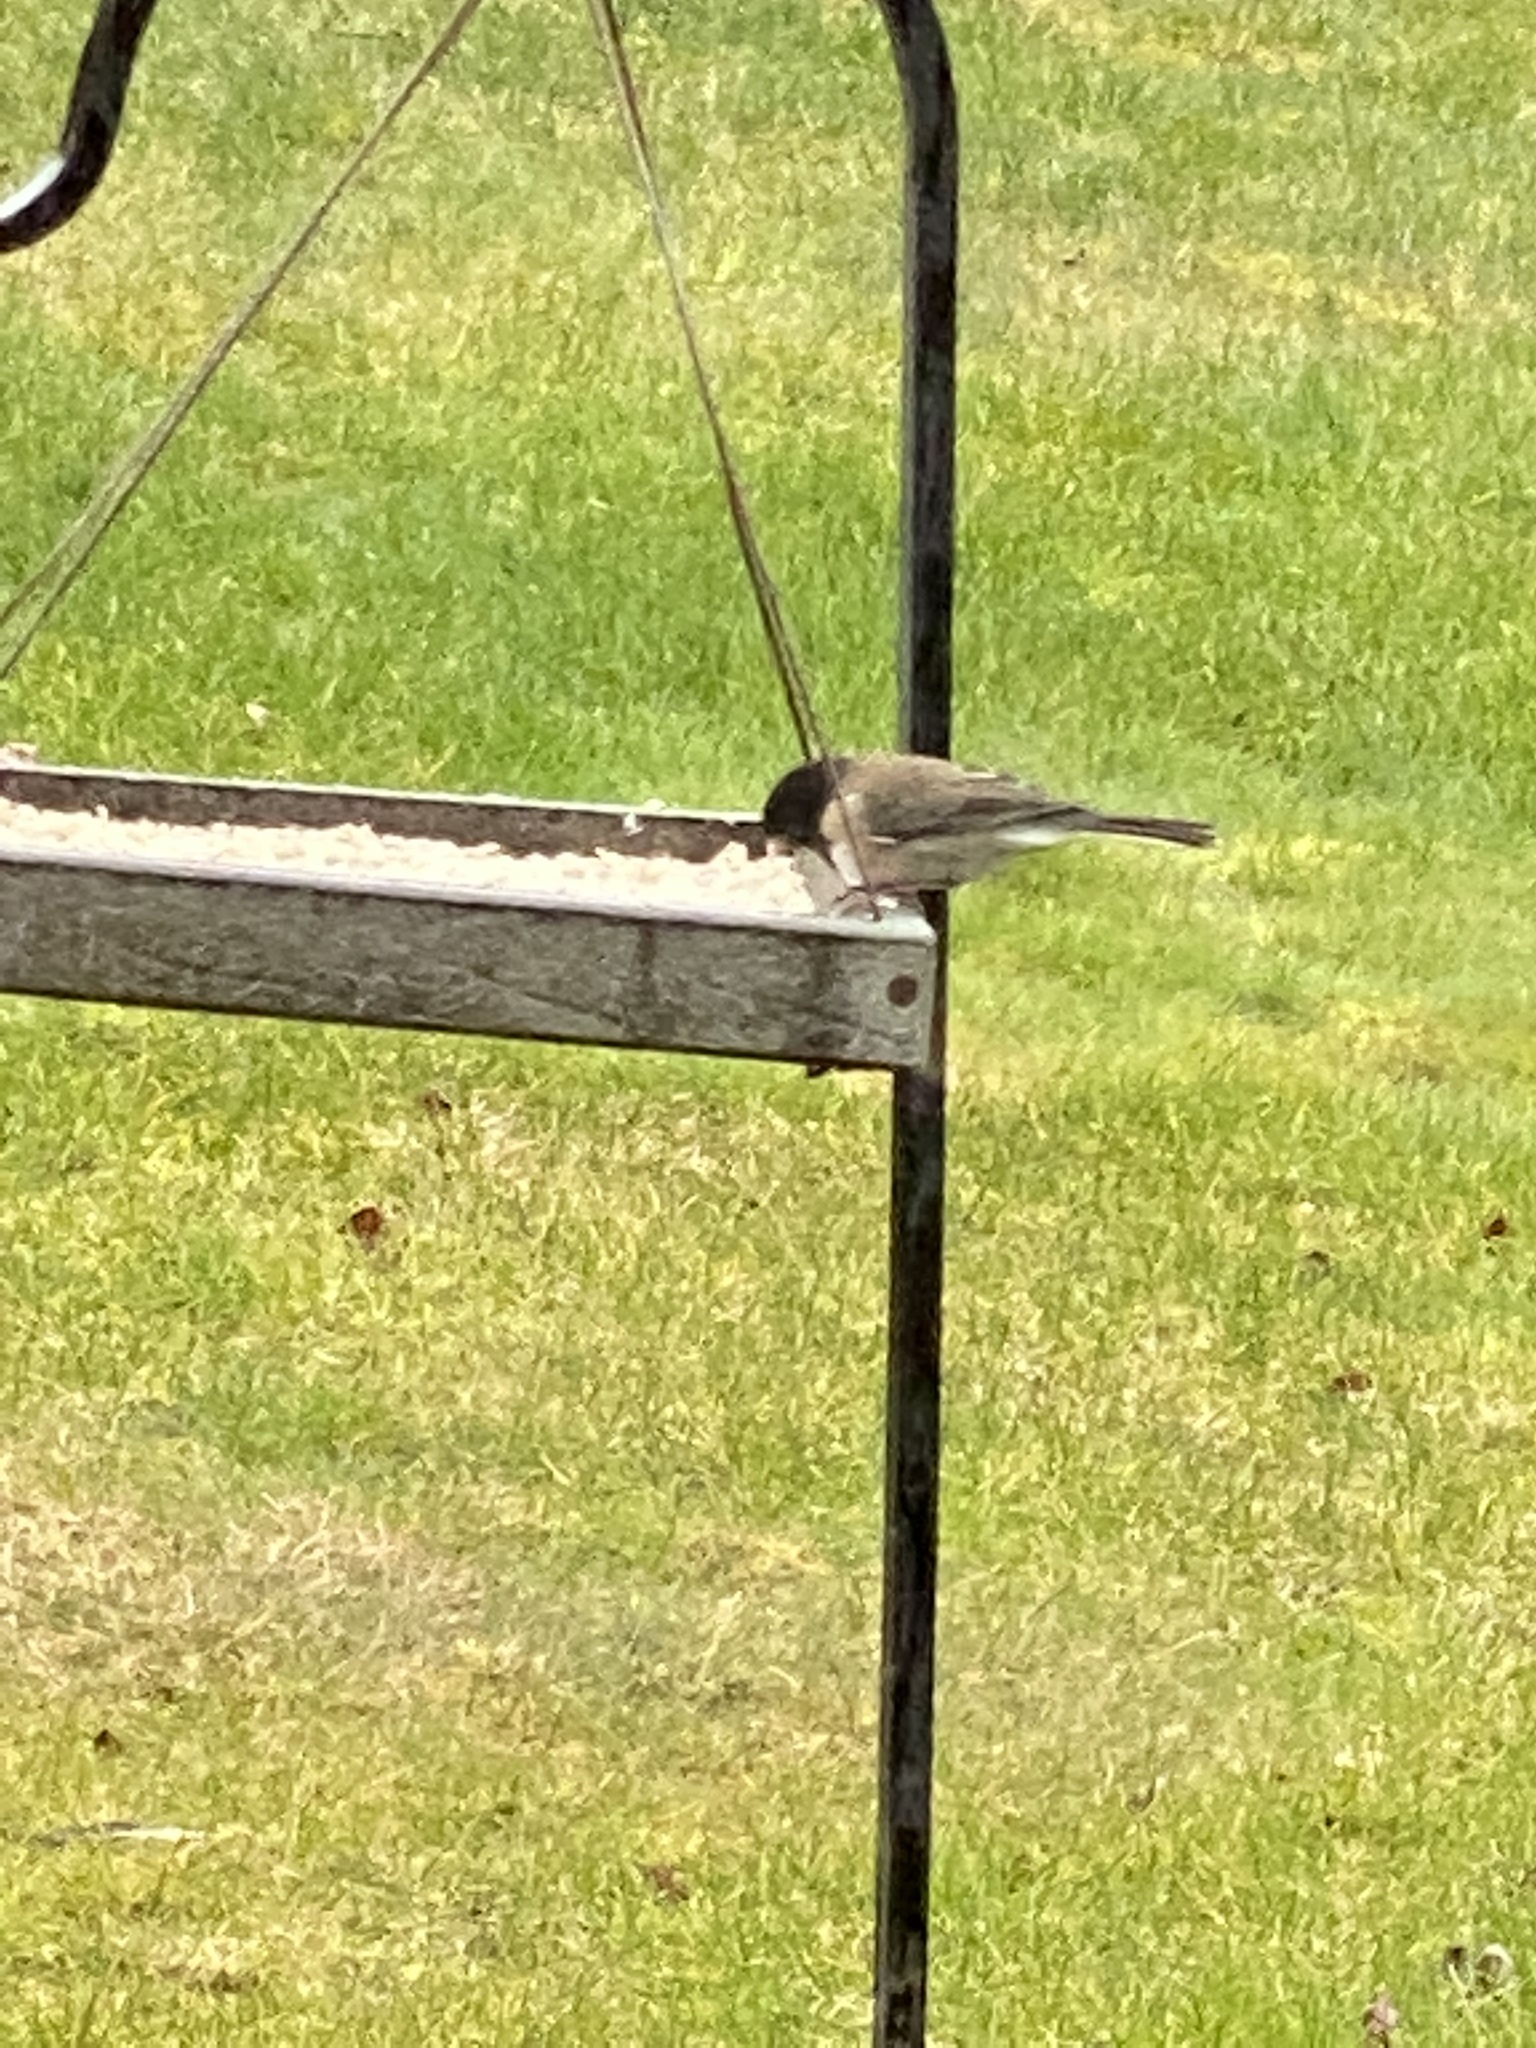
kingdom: Animalia
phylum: Chordata
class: Aves
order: Passeriformes
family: Passerellidae
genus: Junco
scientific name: Junco hyemalis
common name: Dark-eyed junco
